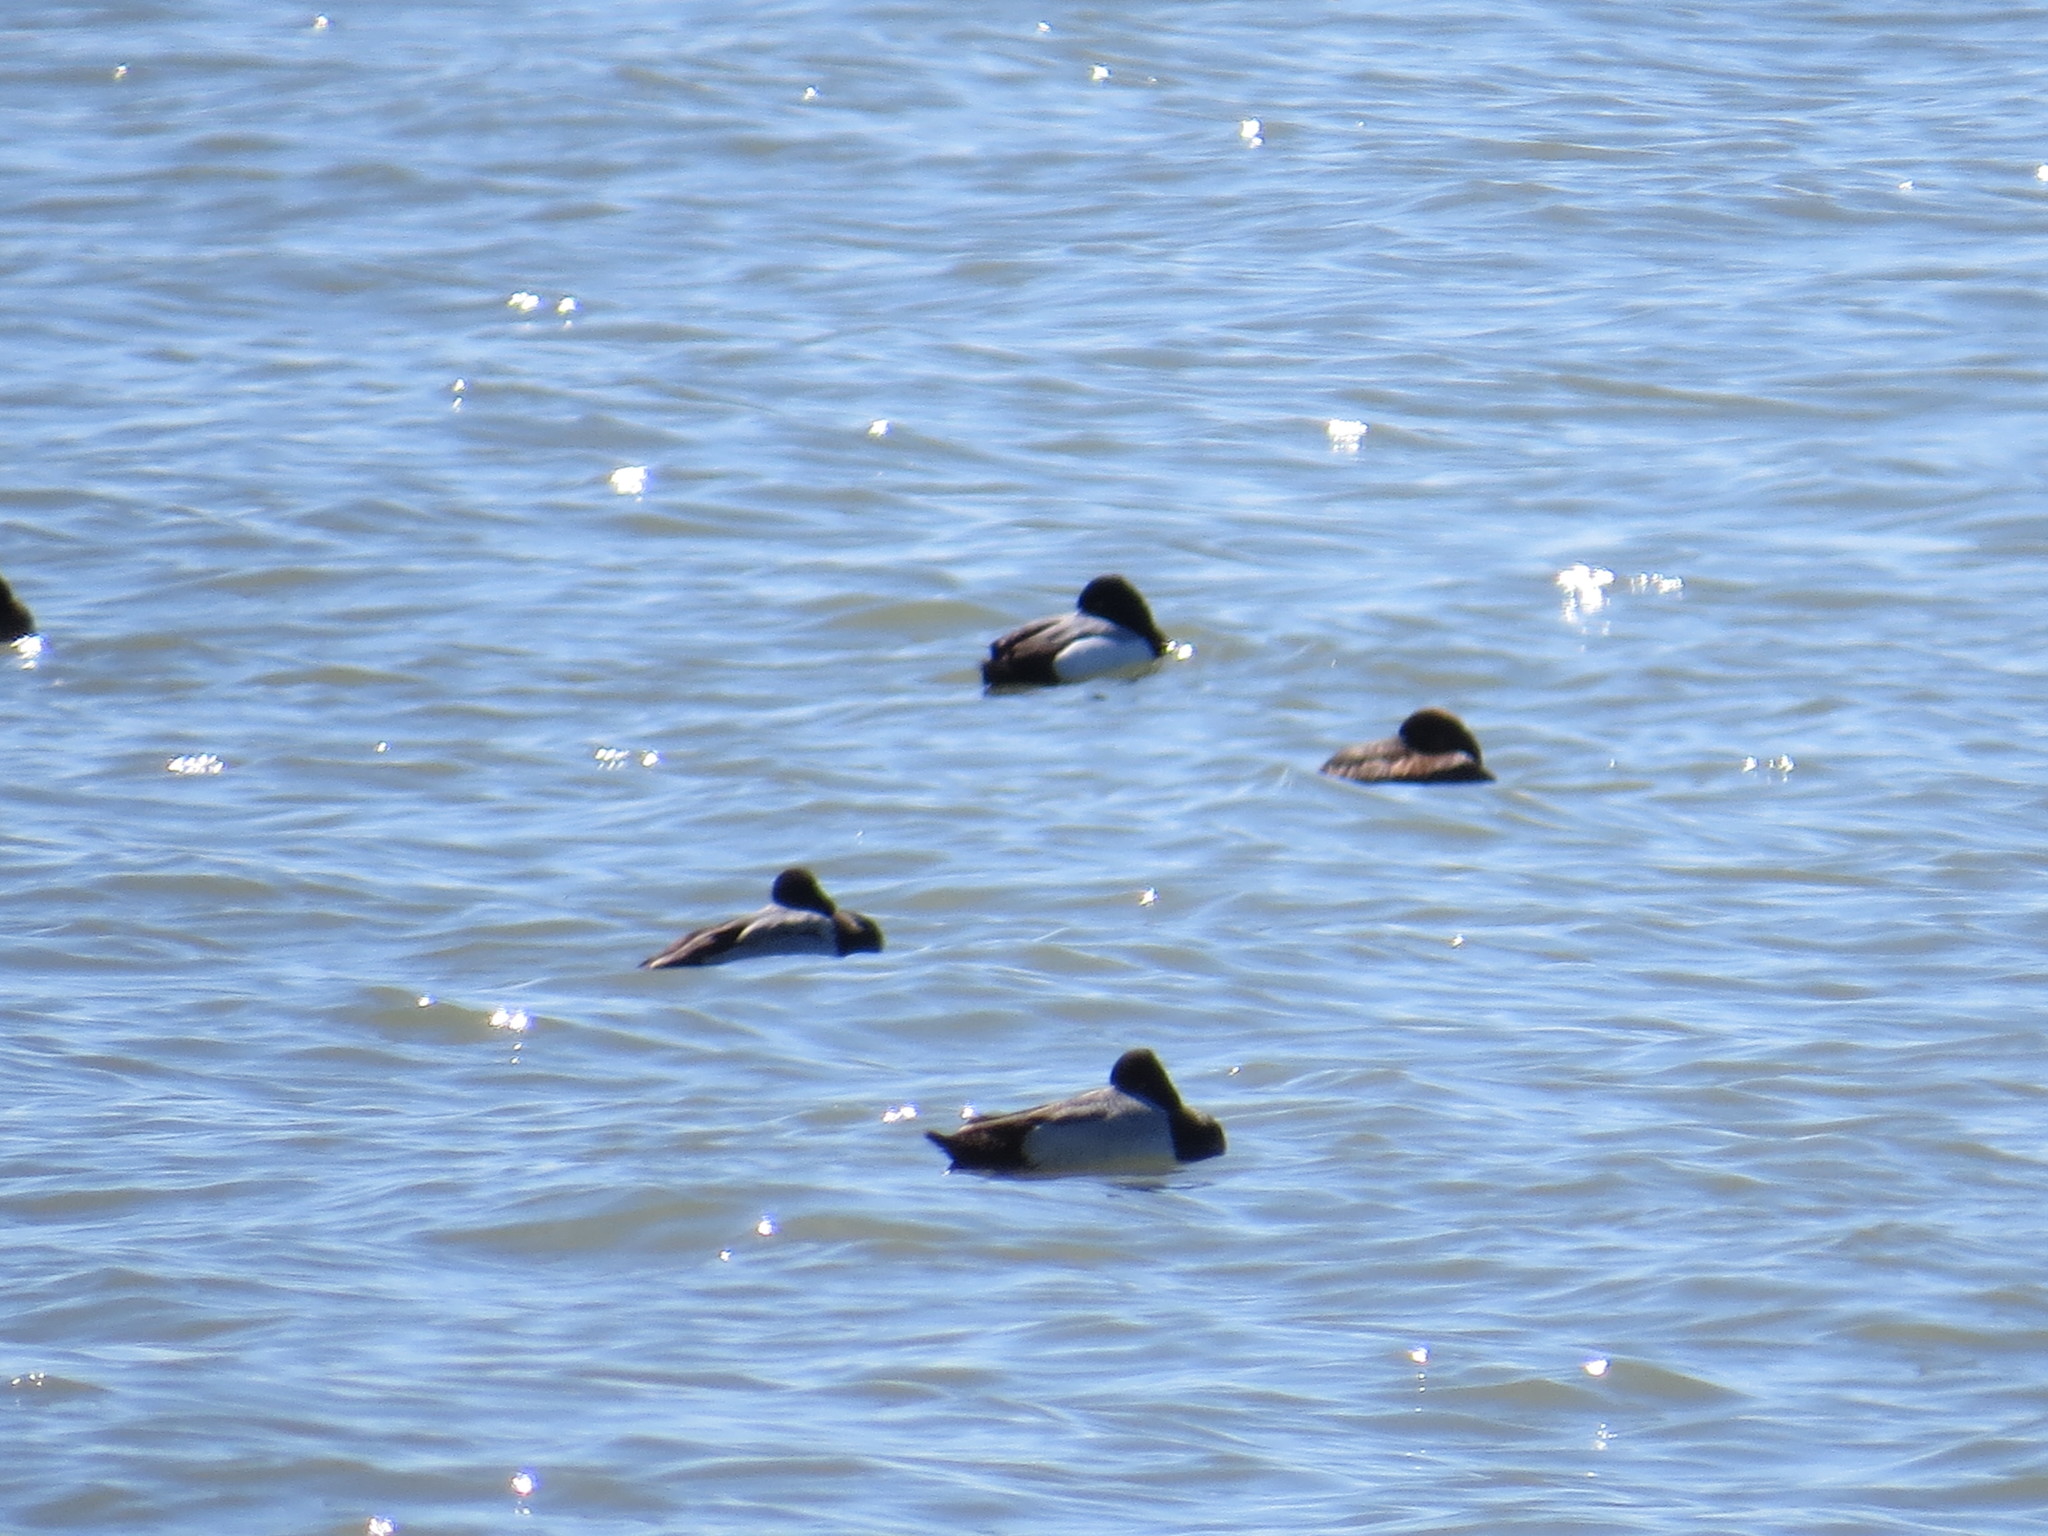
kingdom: Animalia
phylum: Chordata
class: Aves
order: Anseriformes
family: Anatidae
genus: Aythya
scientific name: Aythya marila
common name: Greater scaup
